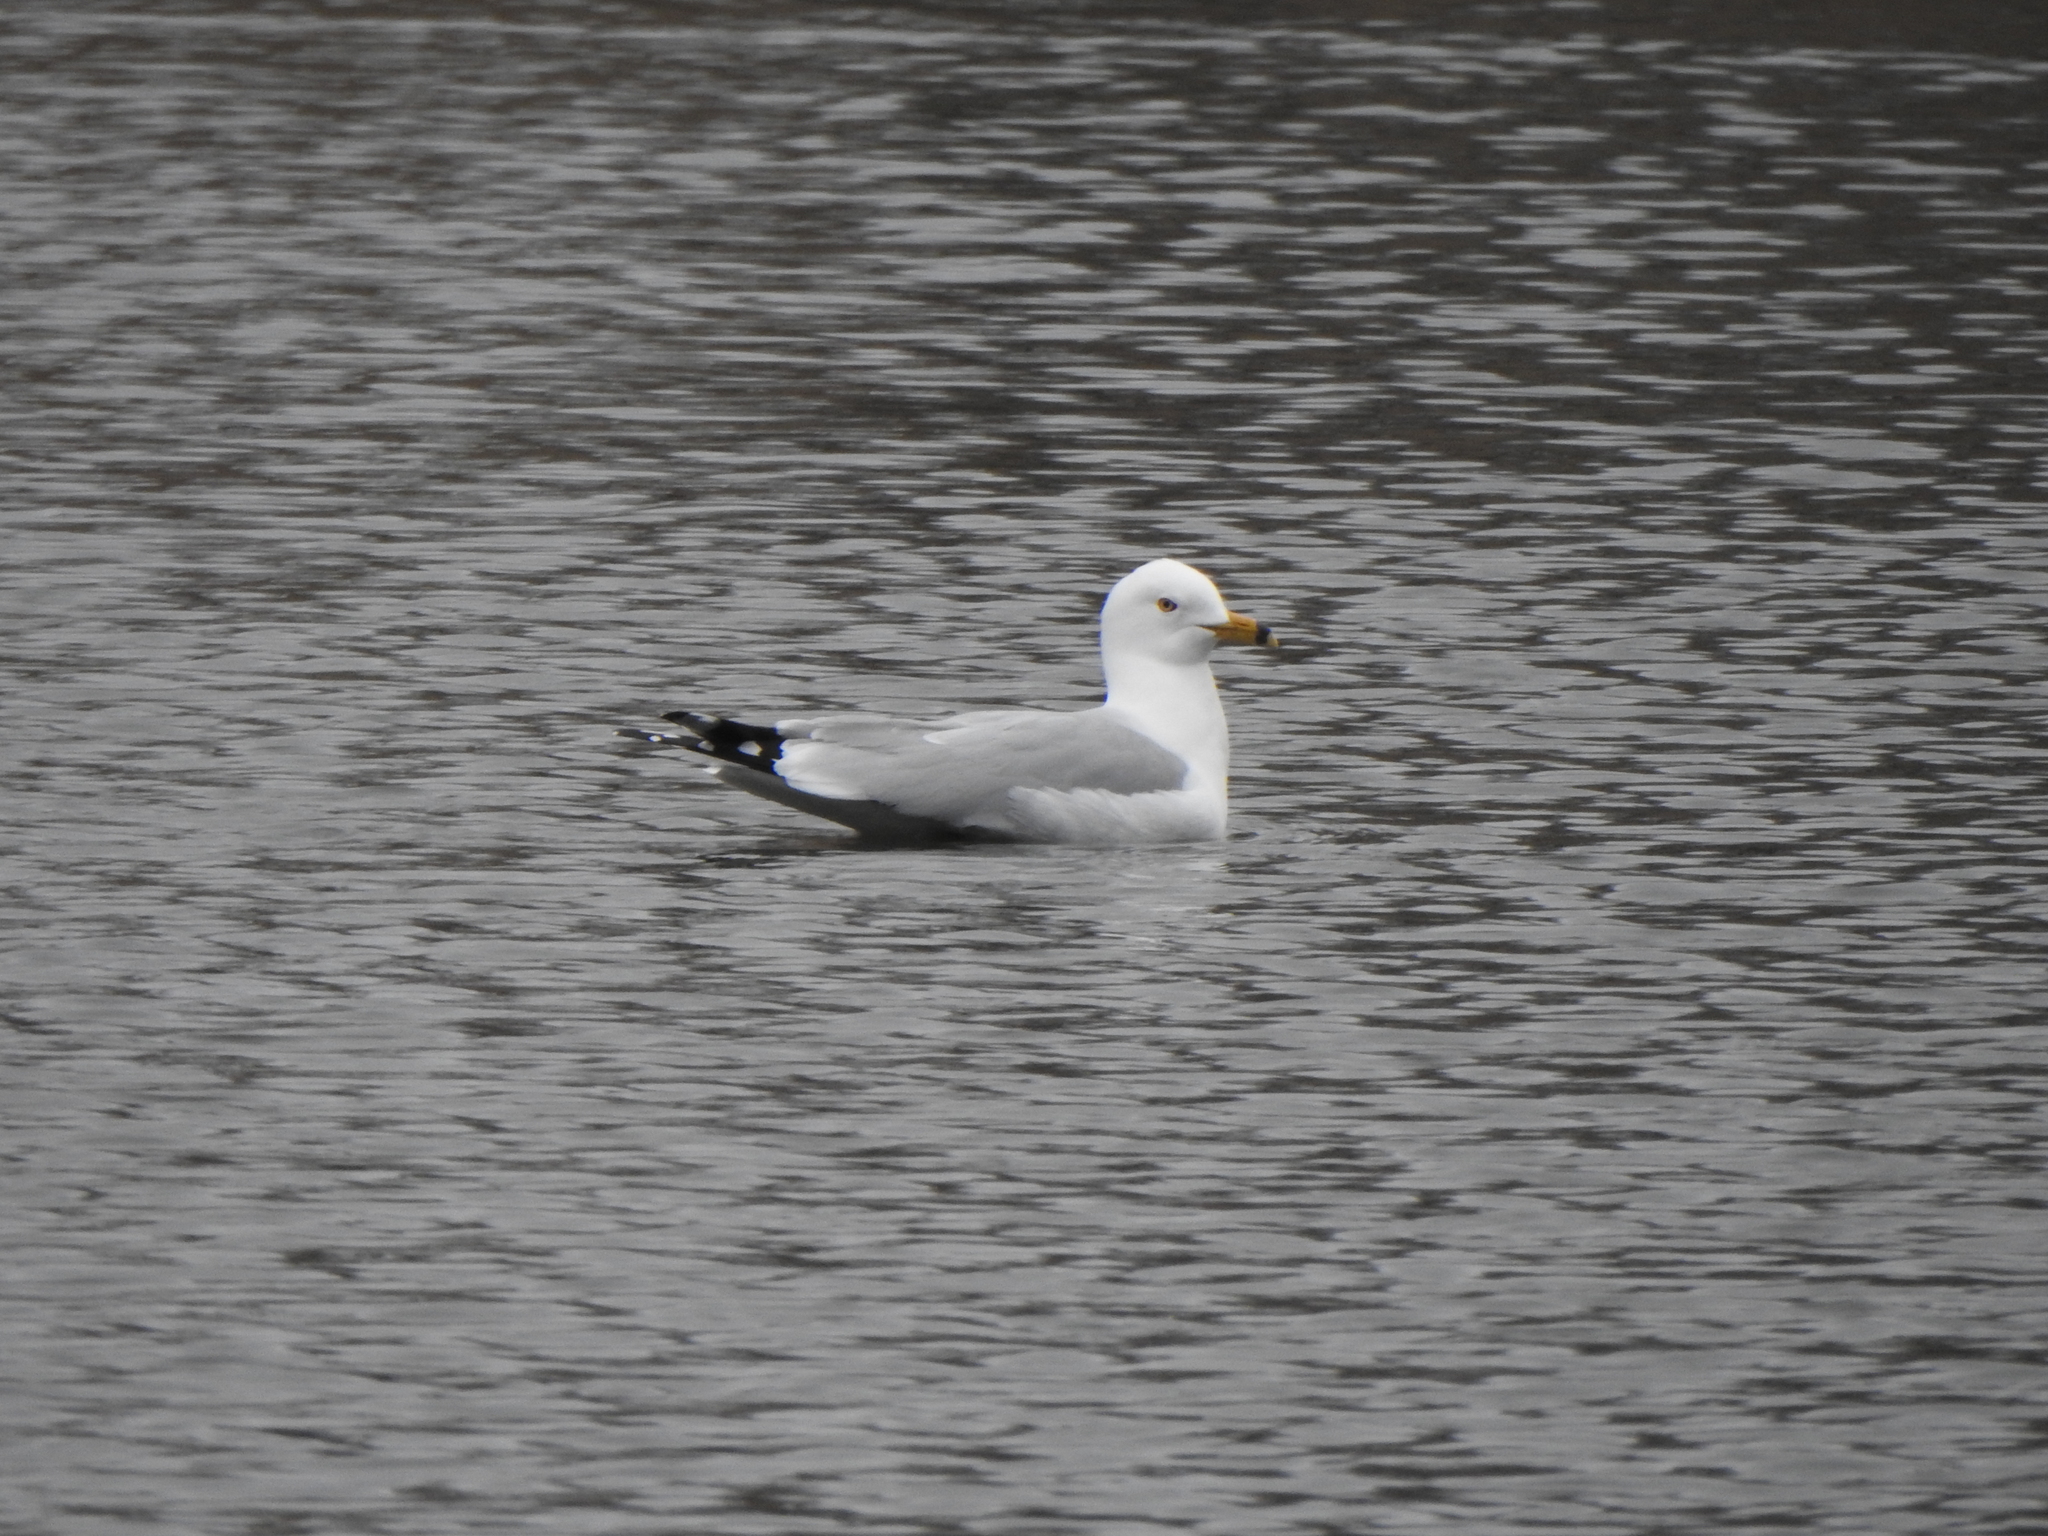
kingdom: Animalia
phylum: Chordata
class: Aves
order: Charadriiformes
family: Laridae
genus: Larus
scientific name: Larus delawarensis
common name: Ring-billed gull
